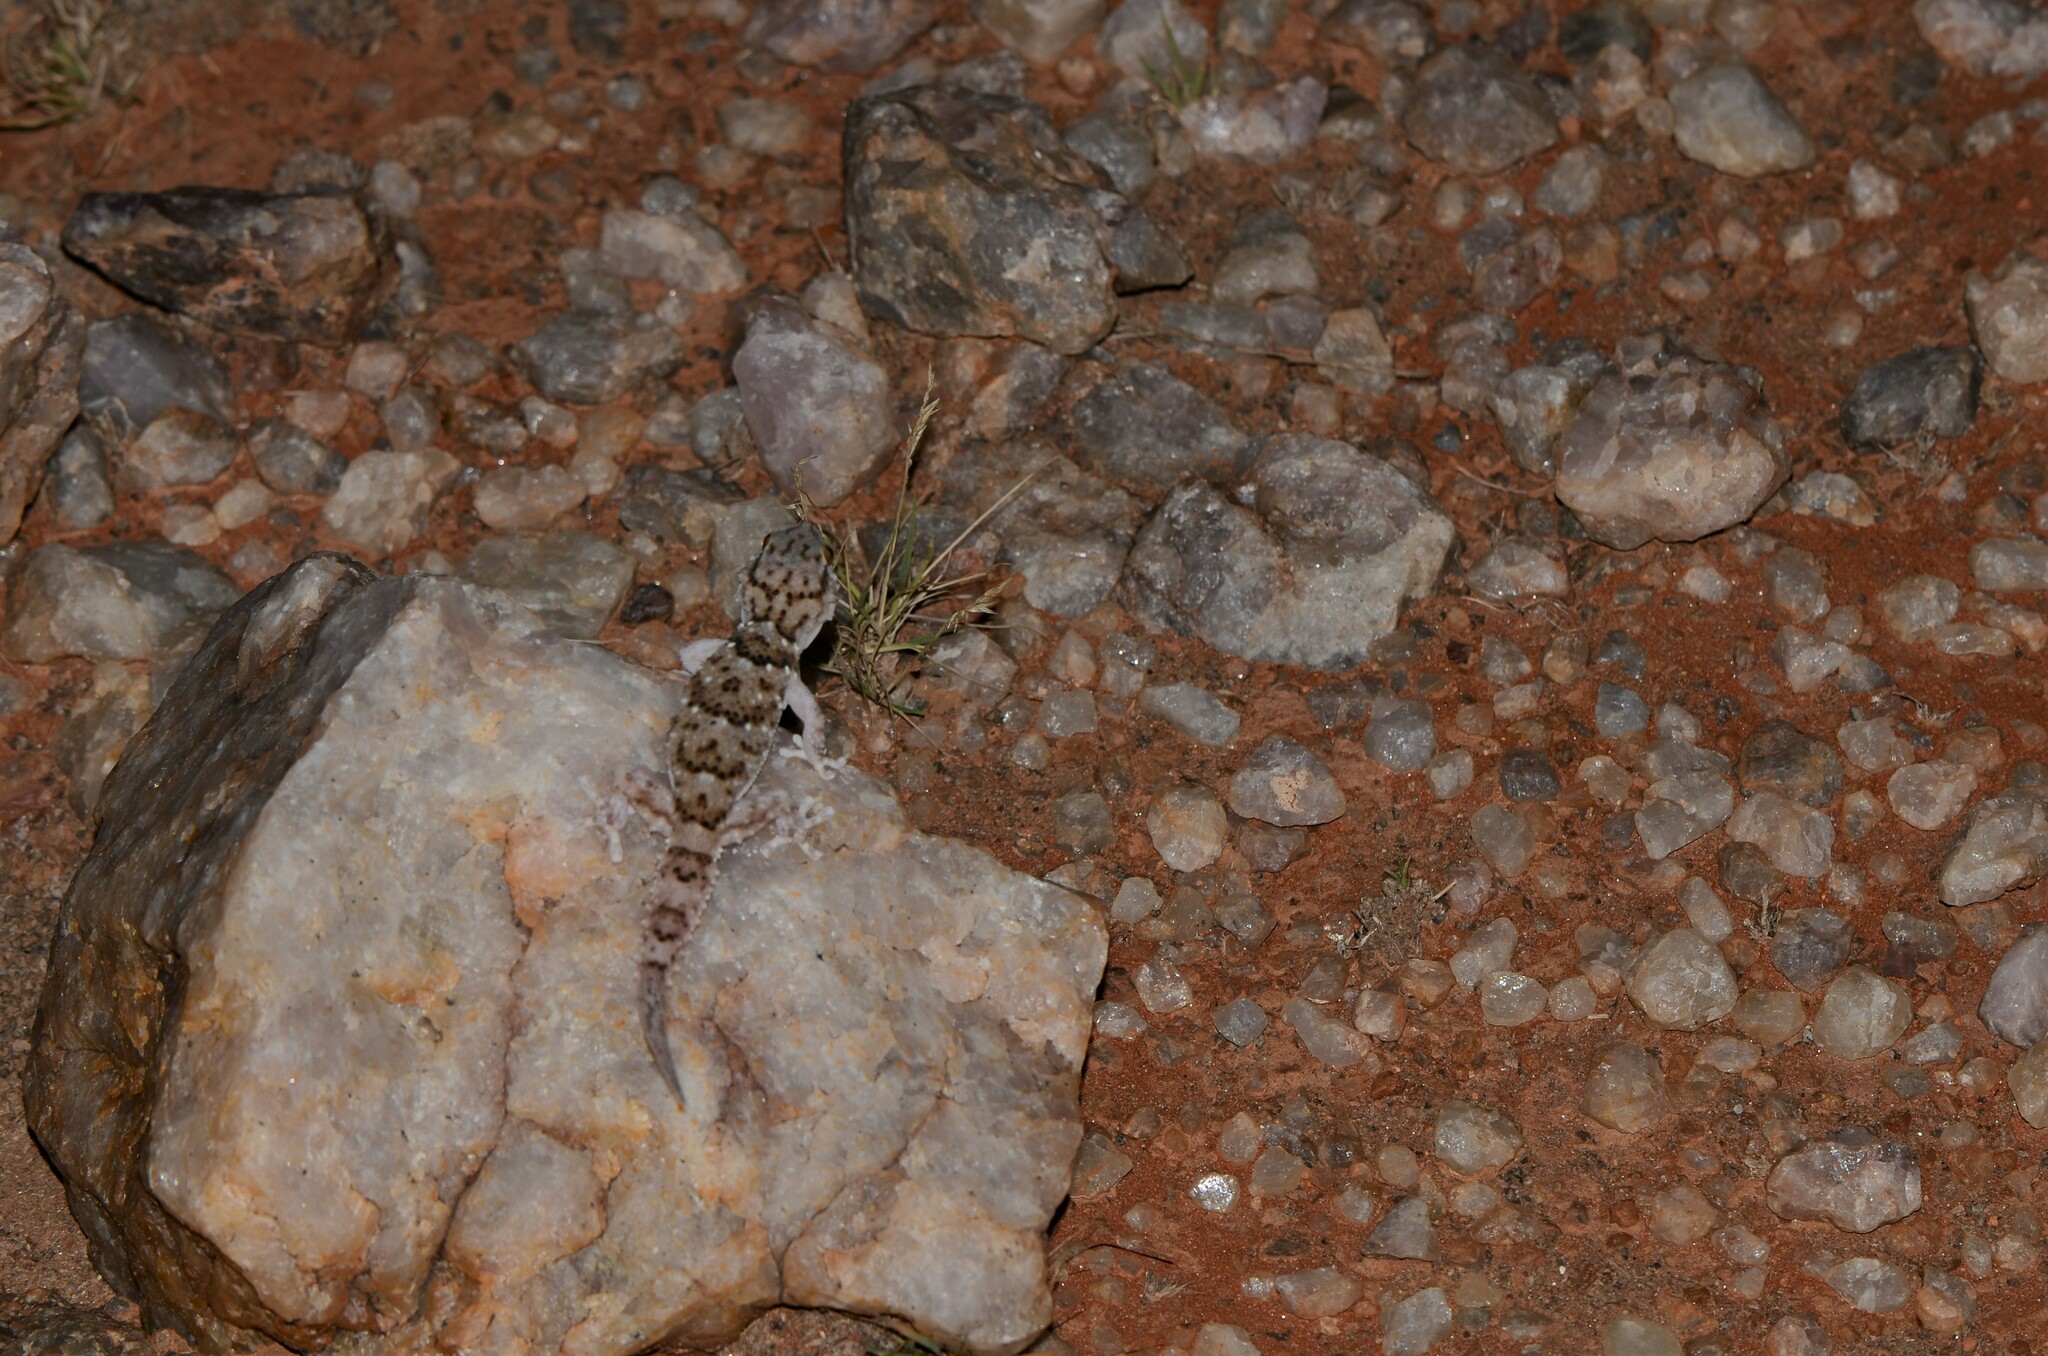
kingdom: Animalia
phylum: Chordata
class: Squamata
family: Gekkonidae
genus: Chondrodactylus
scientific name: Chondrodactylus laevigatus
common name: Fischer's thick-toed gecko
